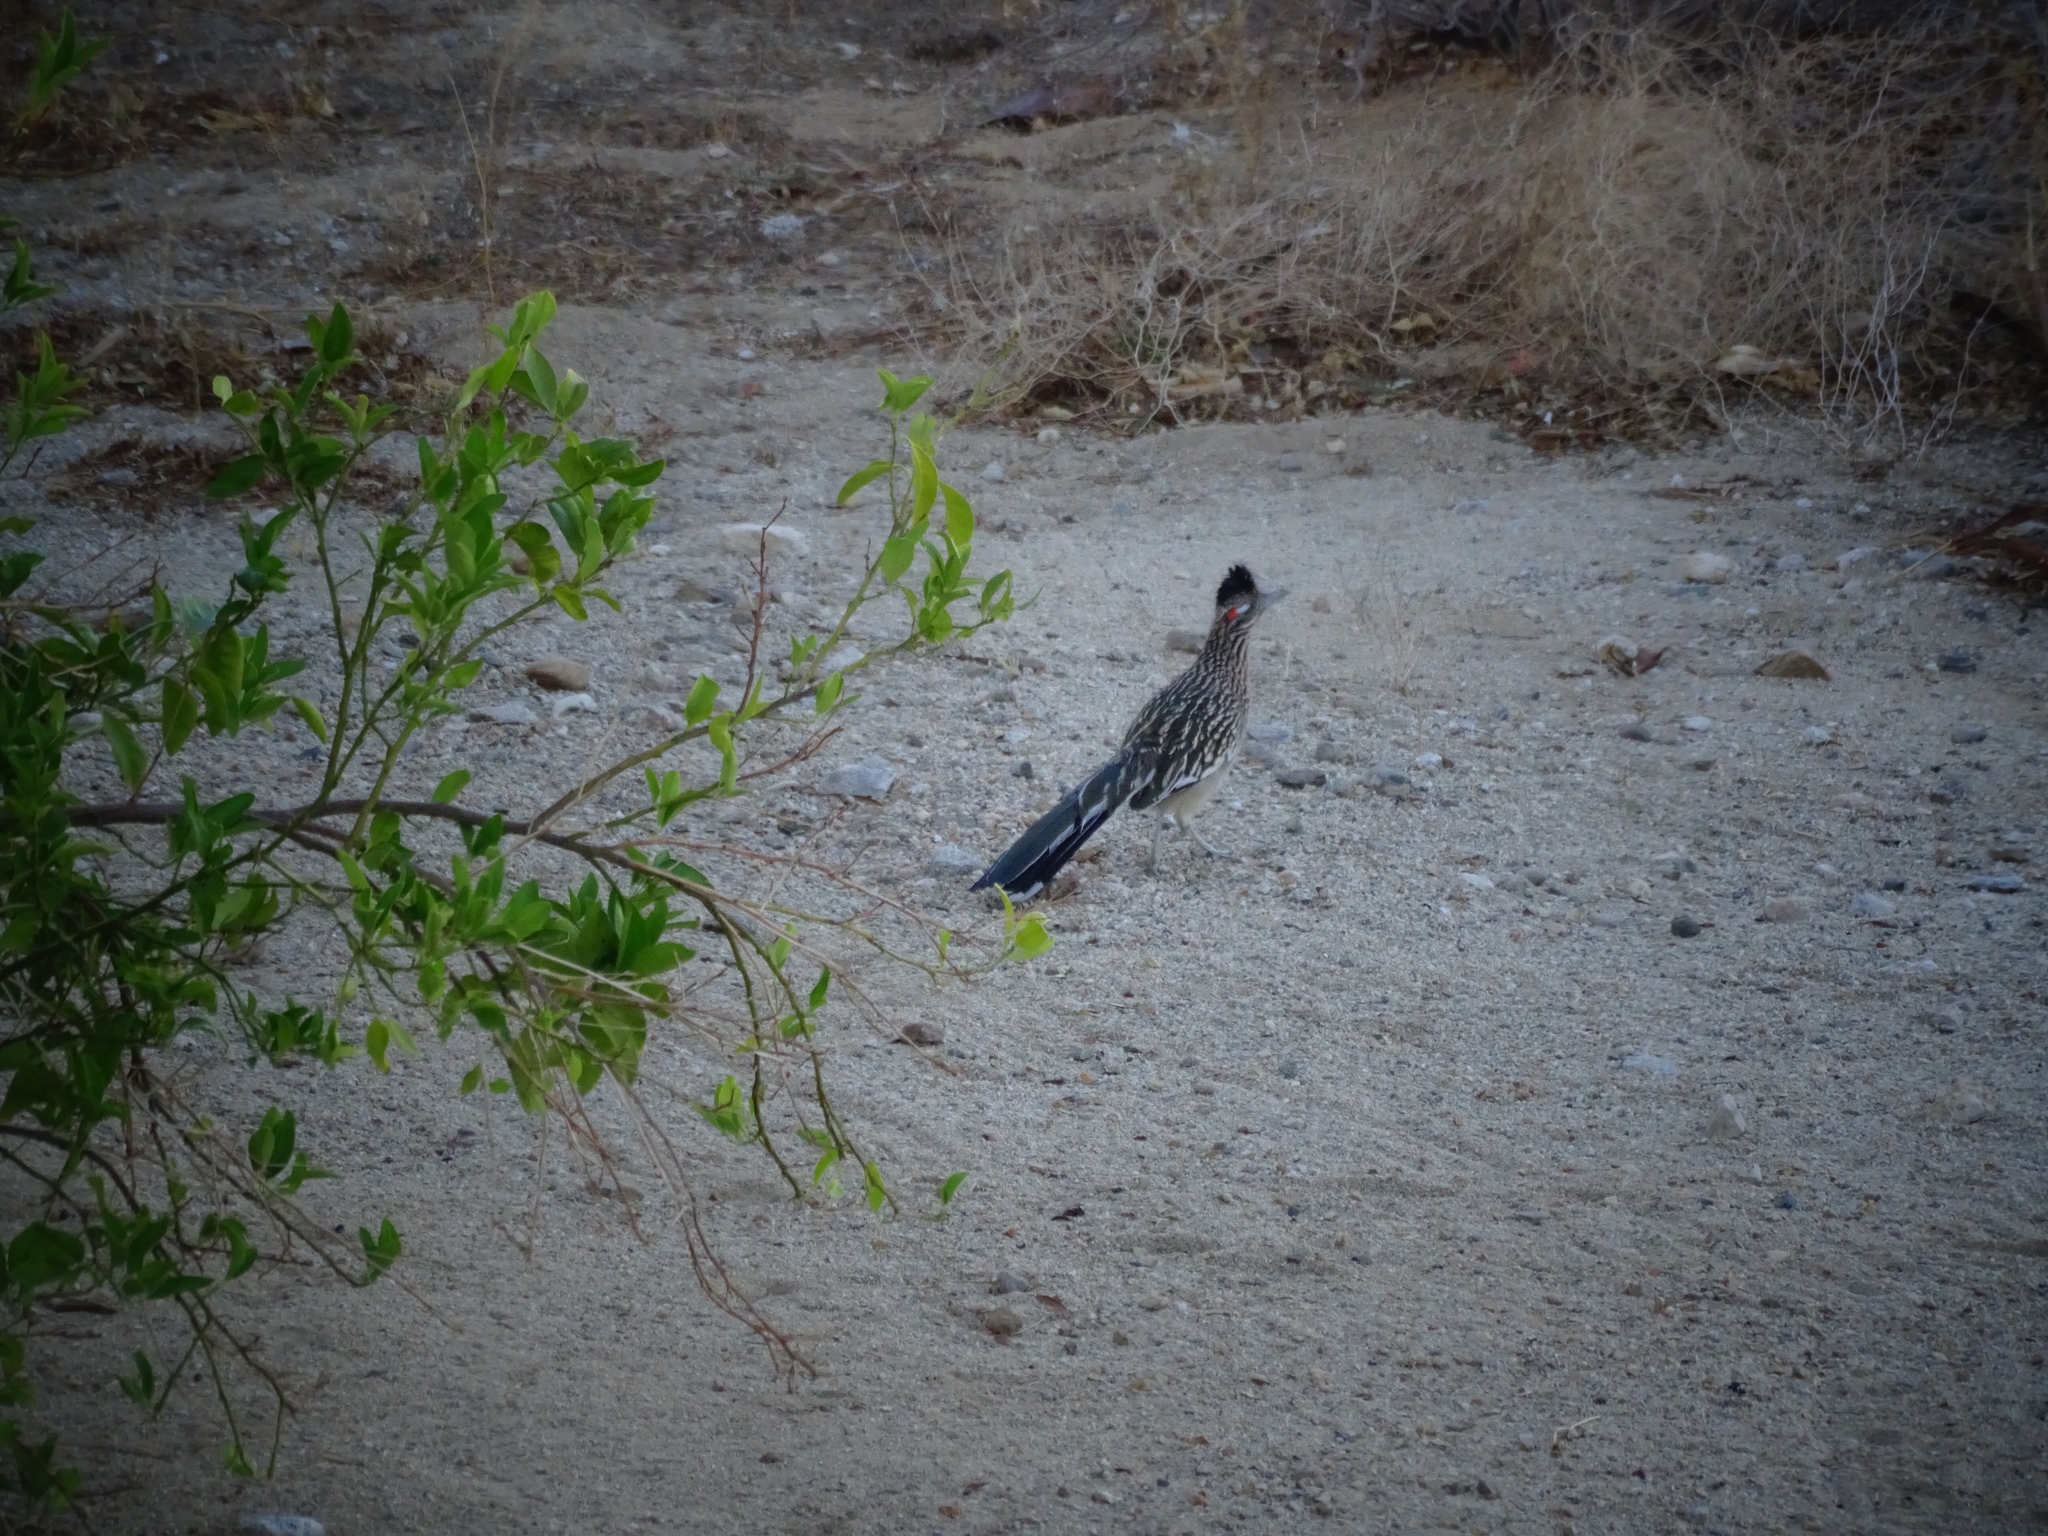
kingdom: Animalia
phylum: Chordata
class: Aves
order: Cuculiformes
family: Cuculidae
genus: Geococcyx
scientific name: Geococcyx californianus
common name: Greater roadrunner
